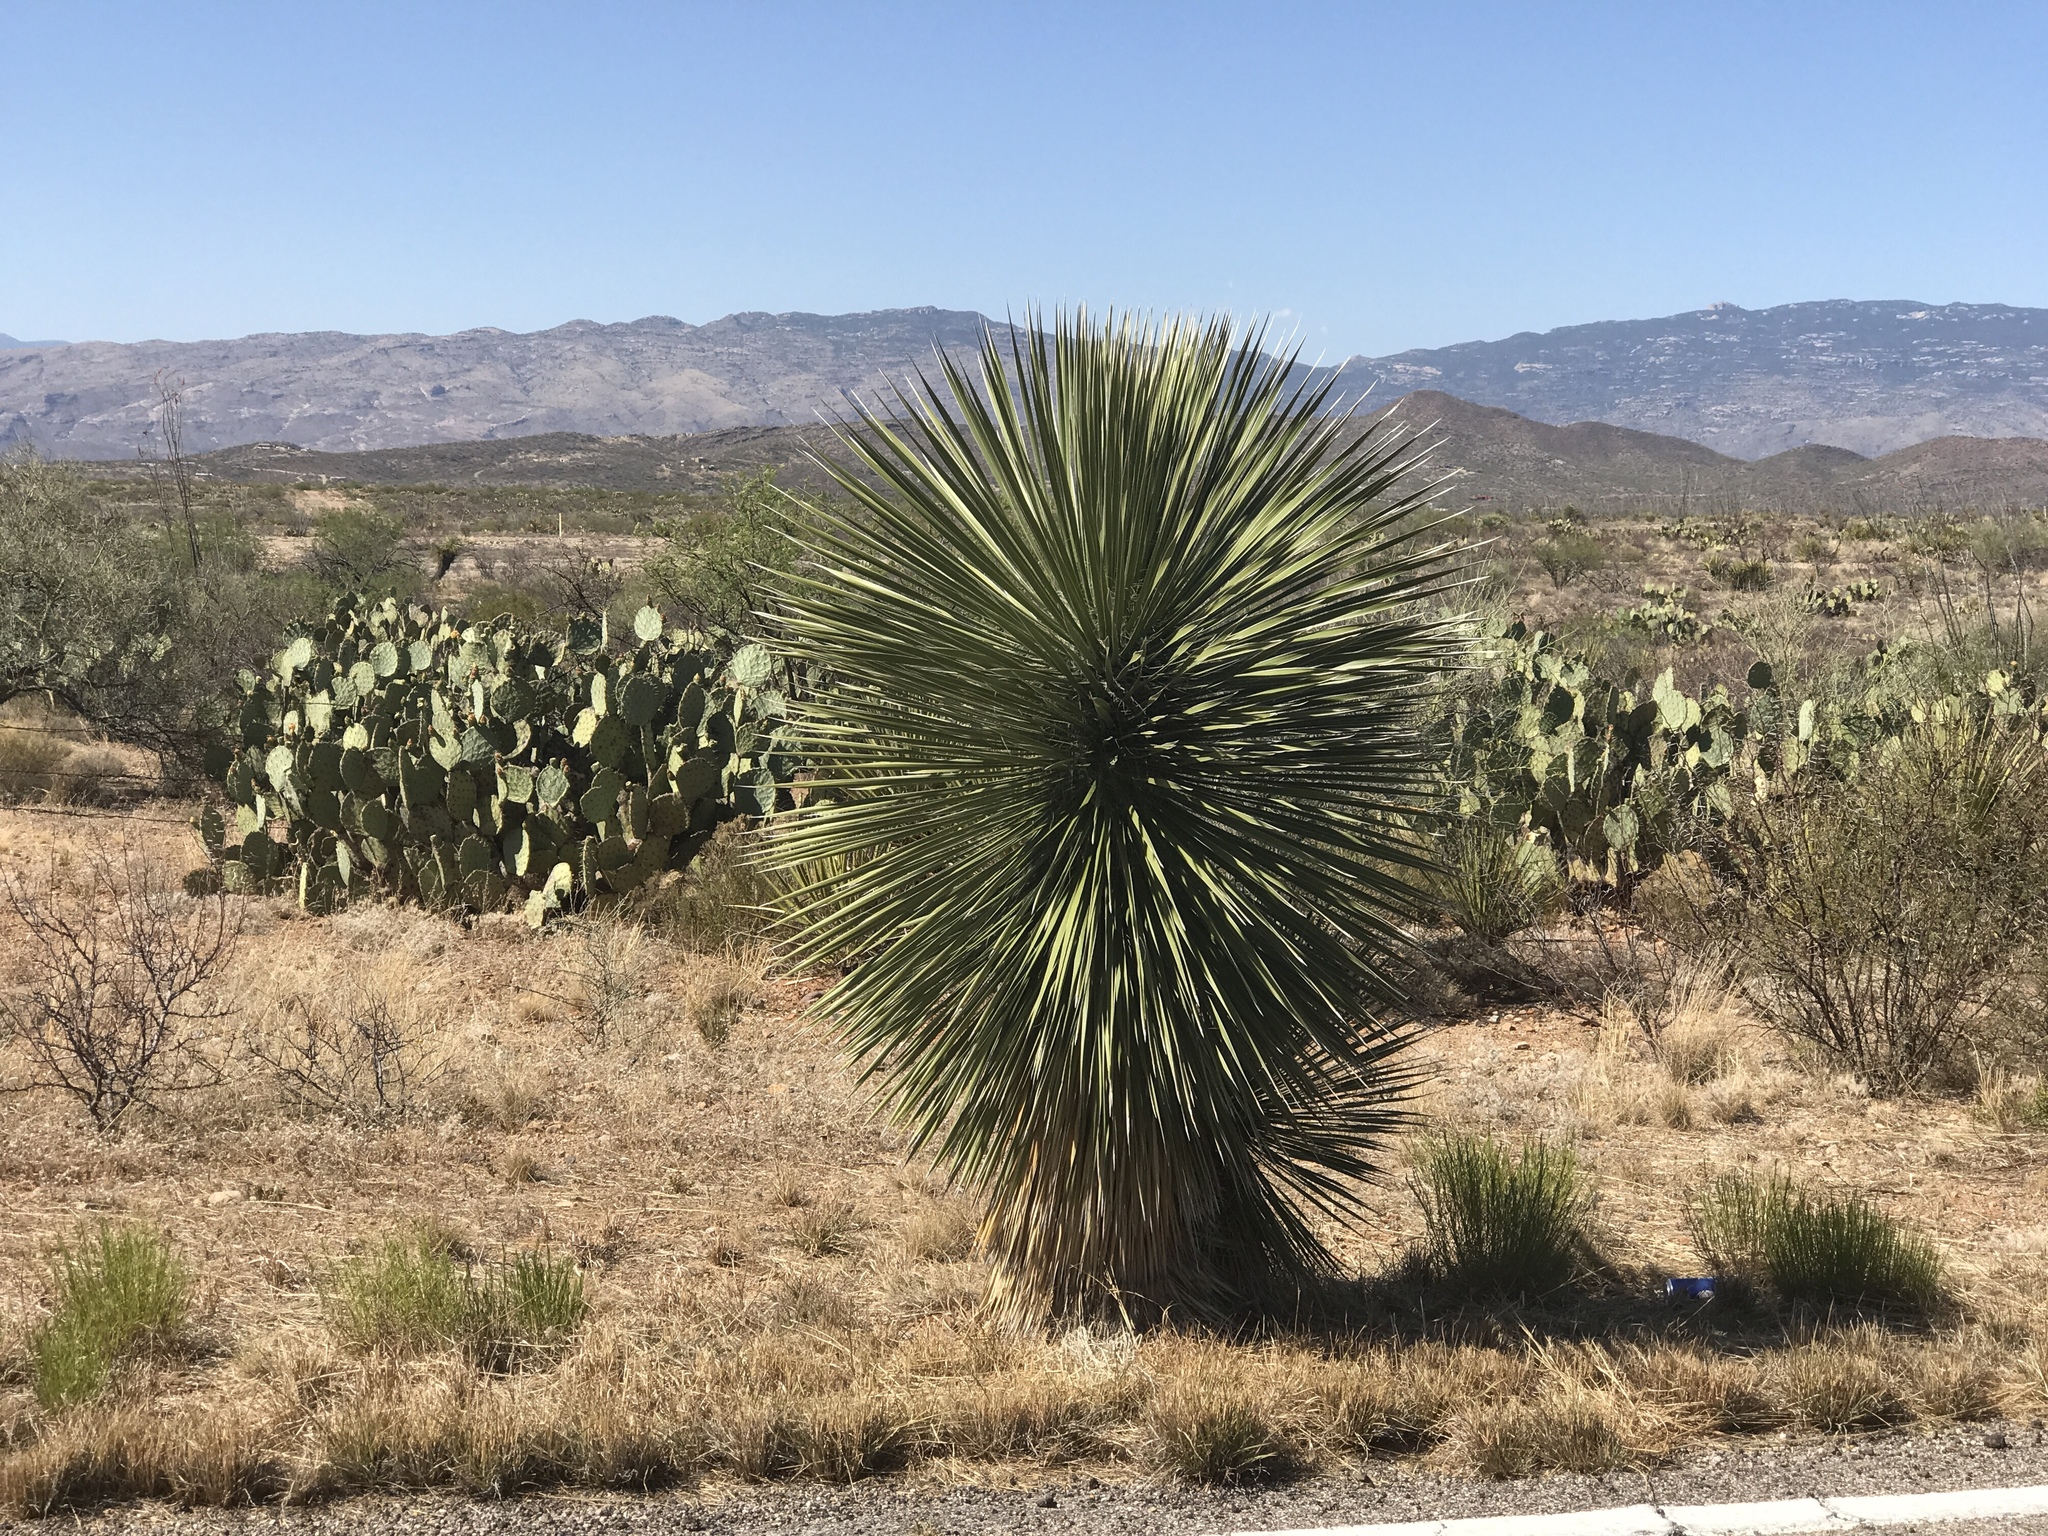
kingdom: Plantae
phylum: Tracheophyta
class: Liliopsida
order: Asparagales
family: Asparagaceae
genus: Yucca
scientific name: Yucca elata
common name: Palmella
